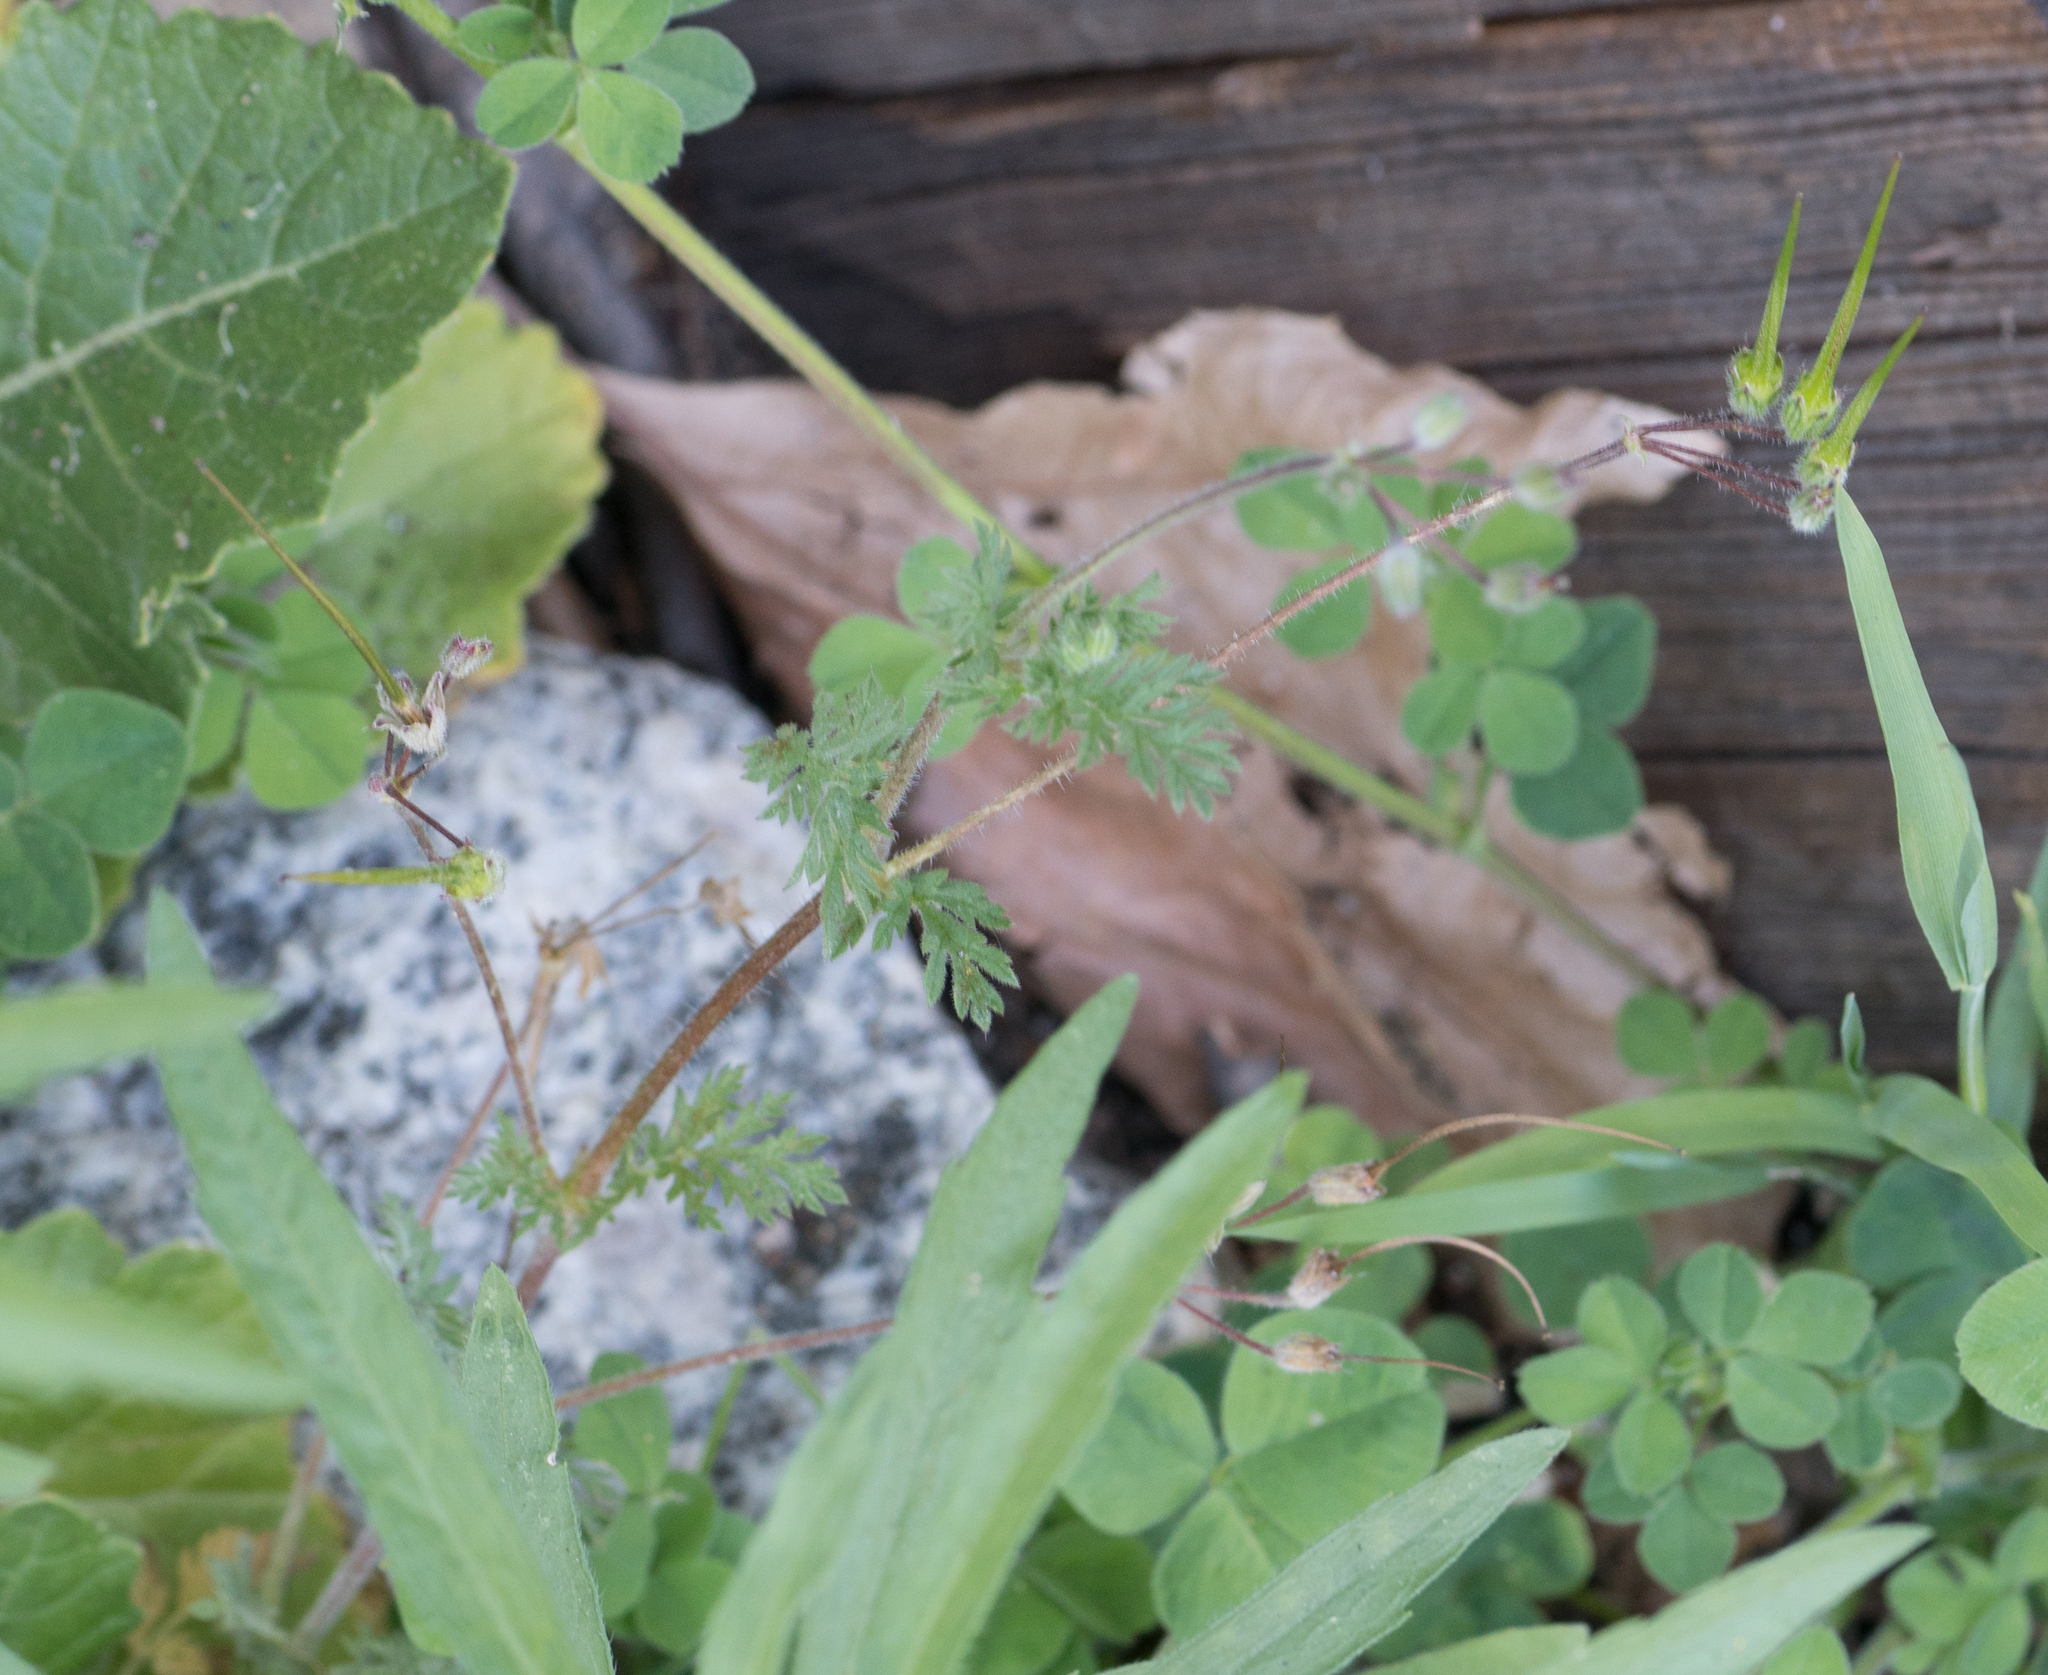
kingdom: Plantae
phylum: Tracheophyta
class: Magnoliopsida
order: Geraniales
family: Geraniaceae
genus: Erodium
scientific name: Erodium cicutarium
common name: Common stork's-bill
